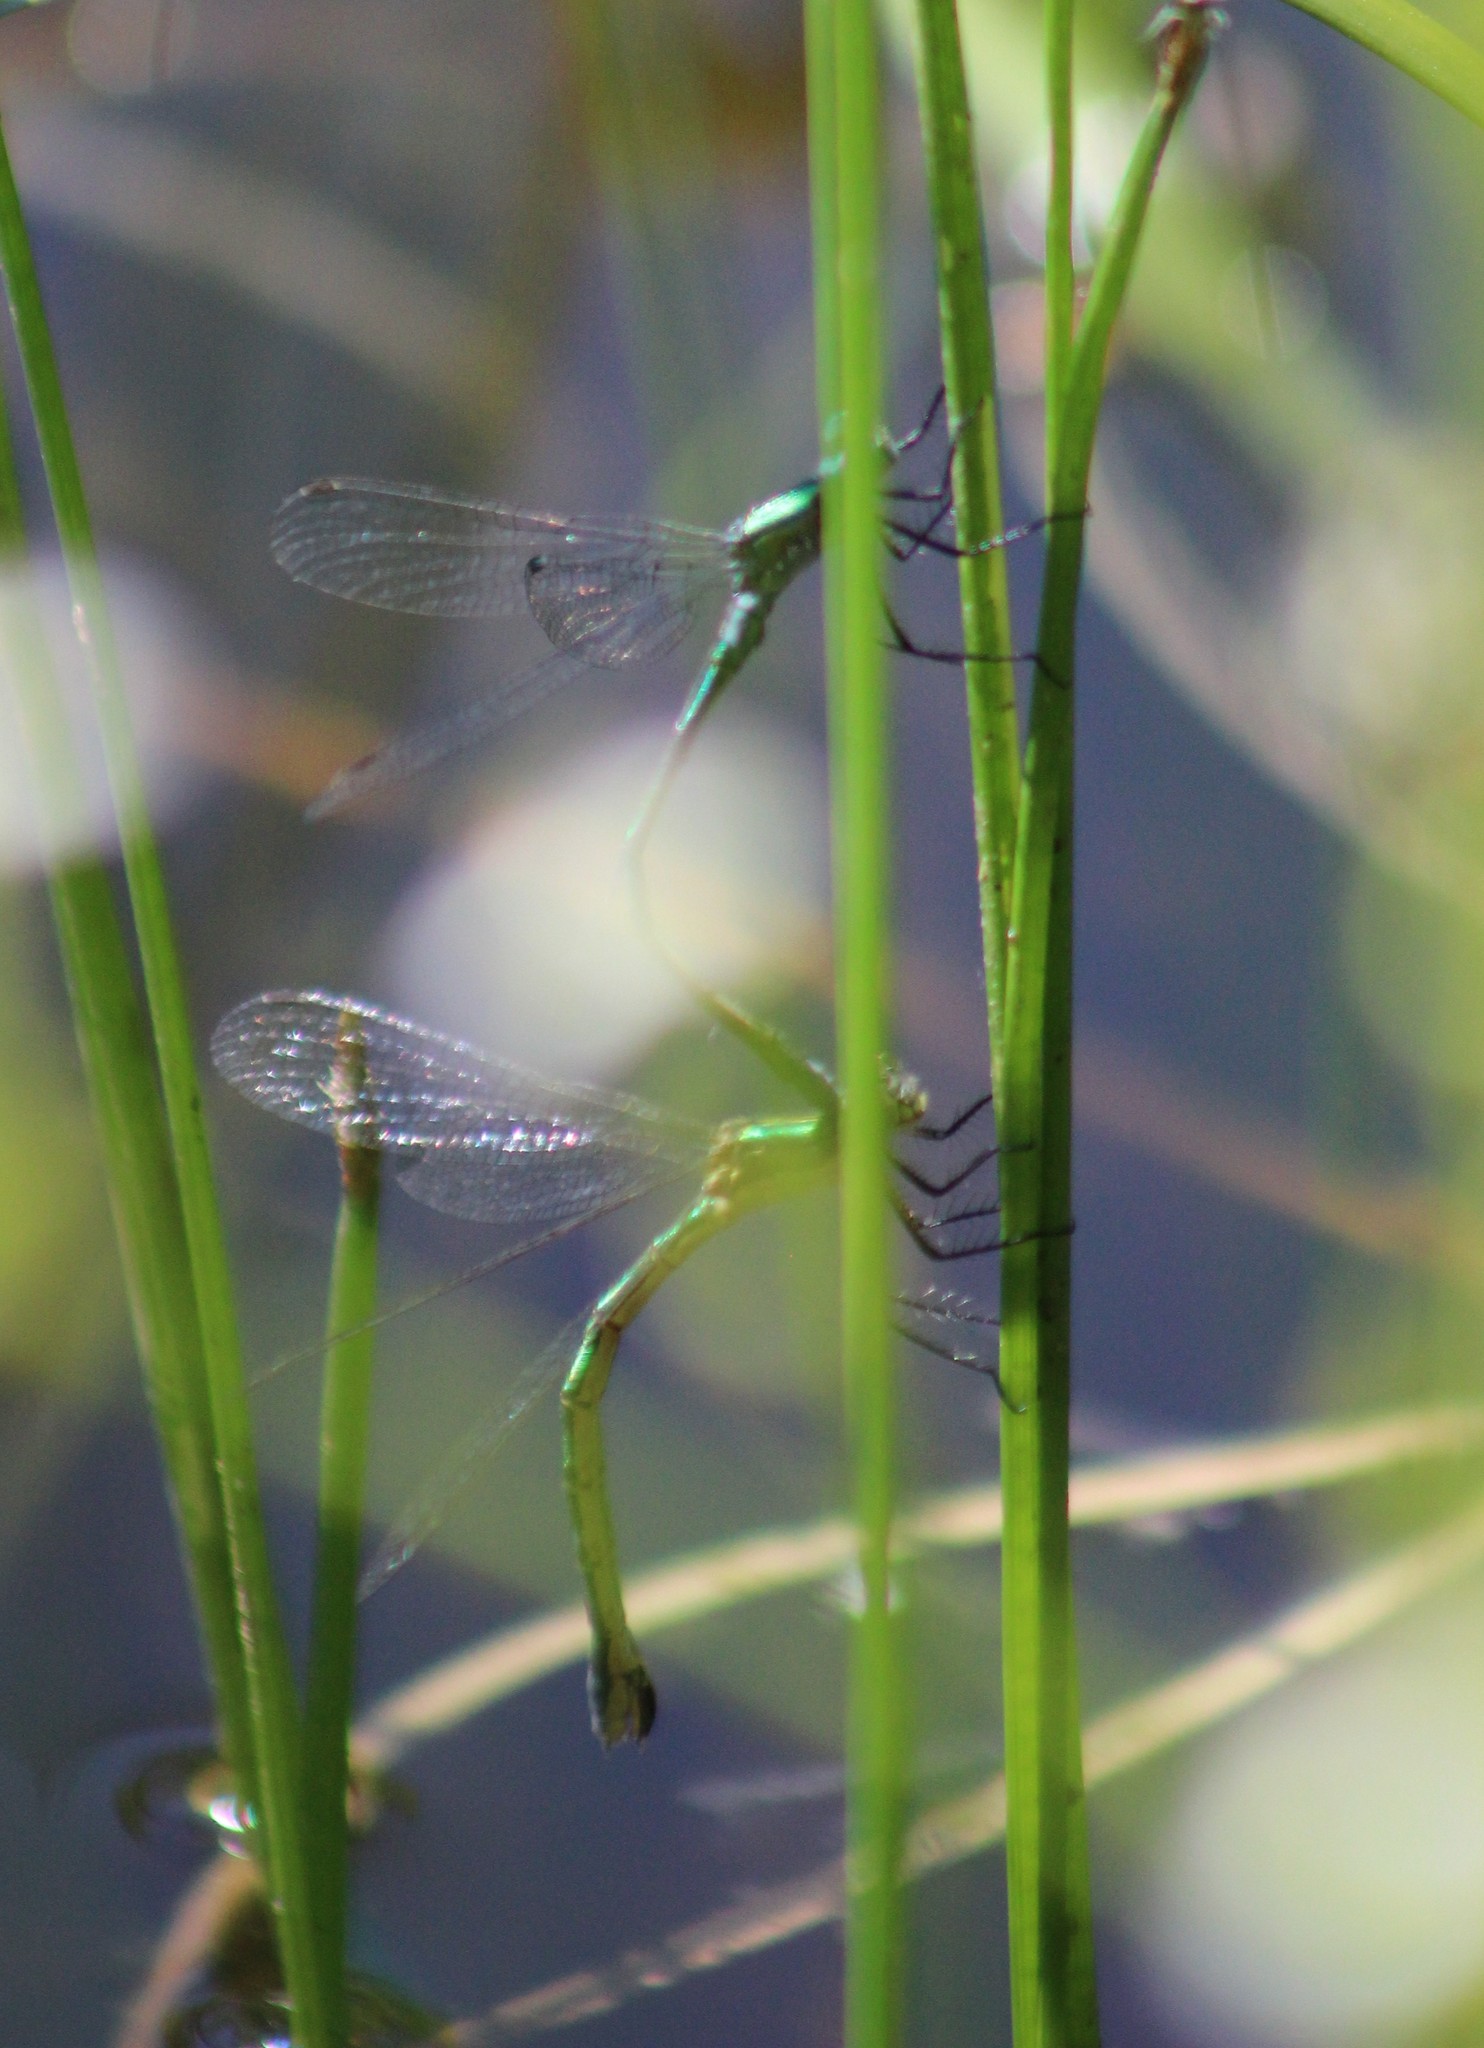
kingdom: Animalia
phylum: Arthropoda
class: Insecta
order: Odonata
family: Lestidae
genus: Lestes
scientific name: Lestes dryas
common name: Scarce emerald damselfly
